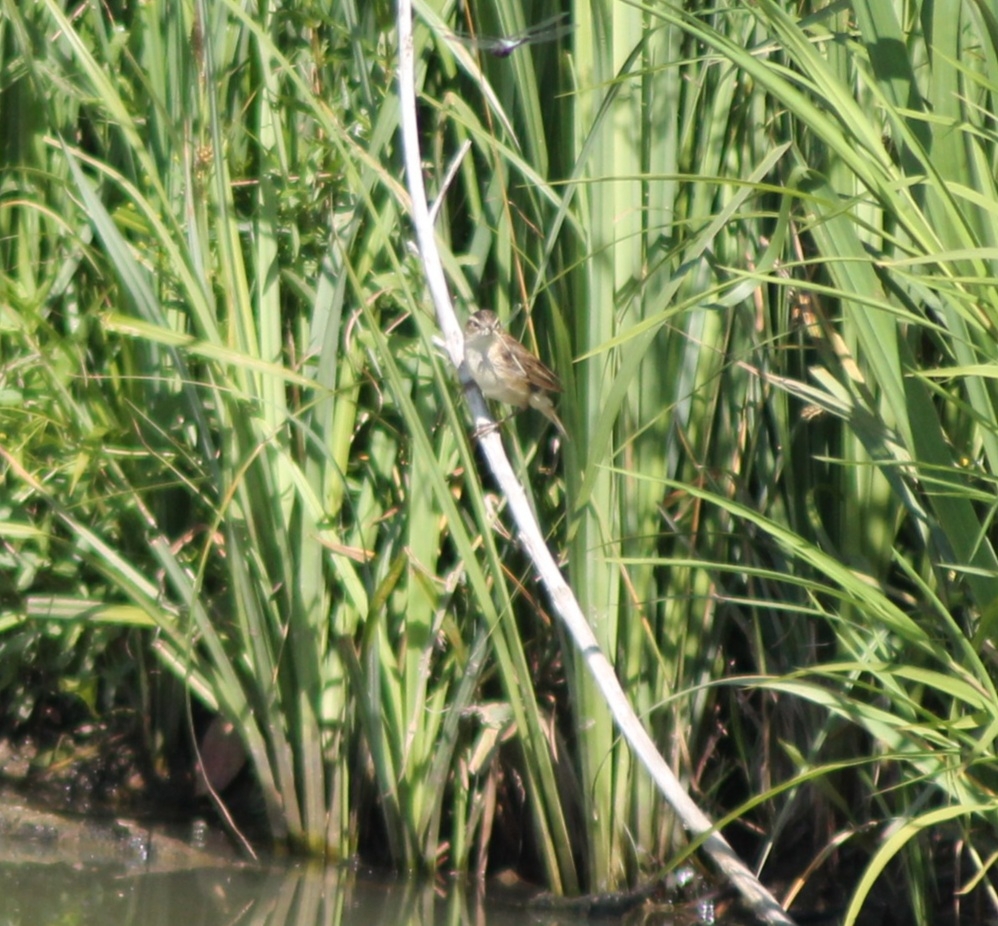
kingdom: Animalia
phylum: Chordata
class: Aves
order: Passeriformes
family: Acrocephalidae
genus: Acrocephalus
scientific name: Acrocephalus schoenobaenus
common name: Sedge warbler
